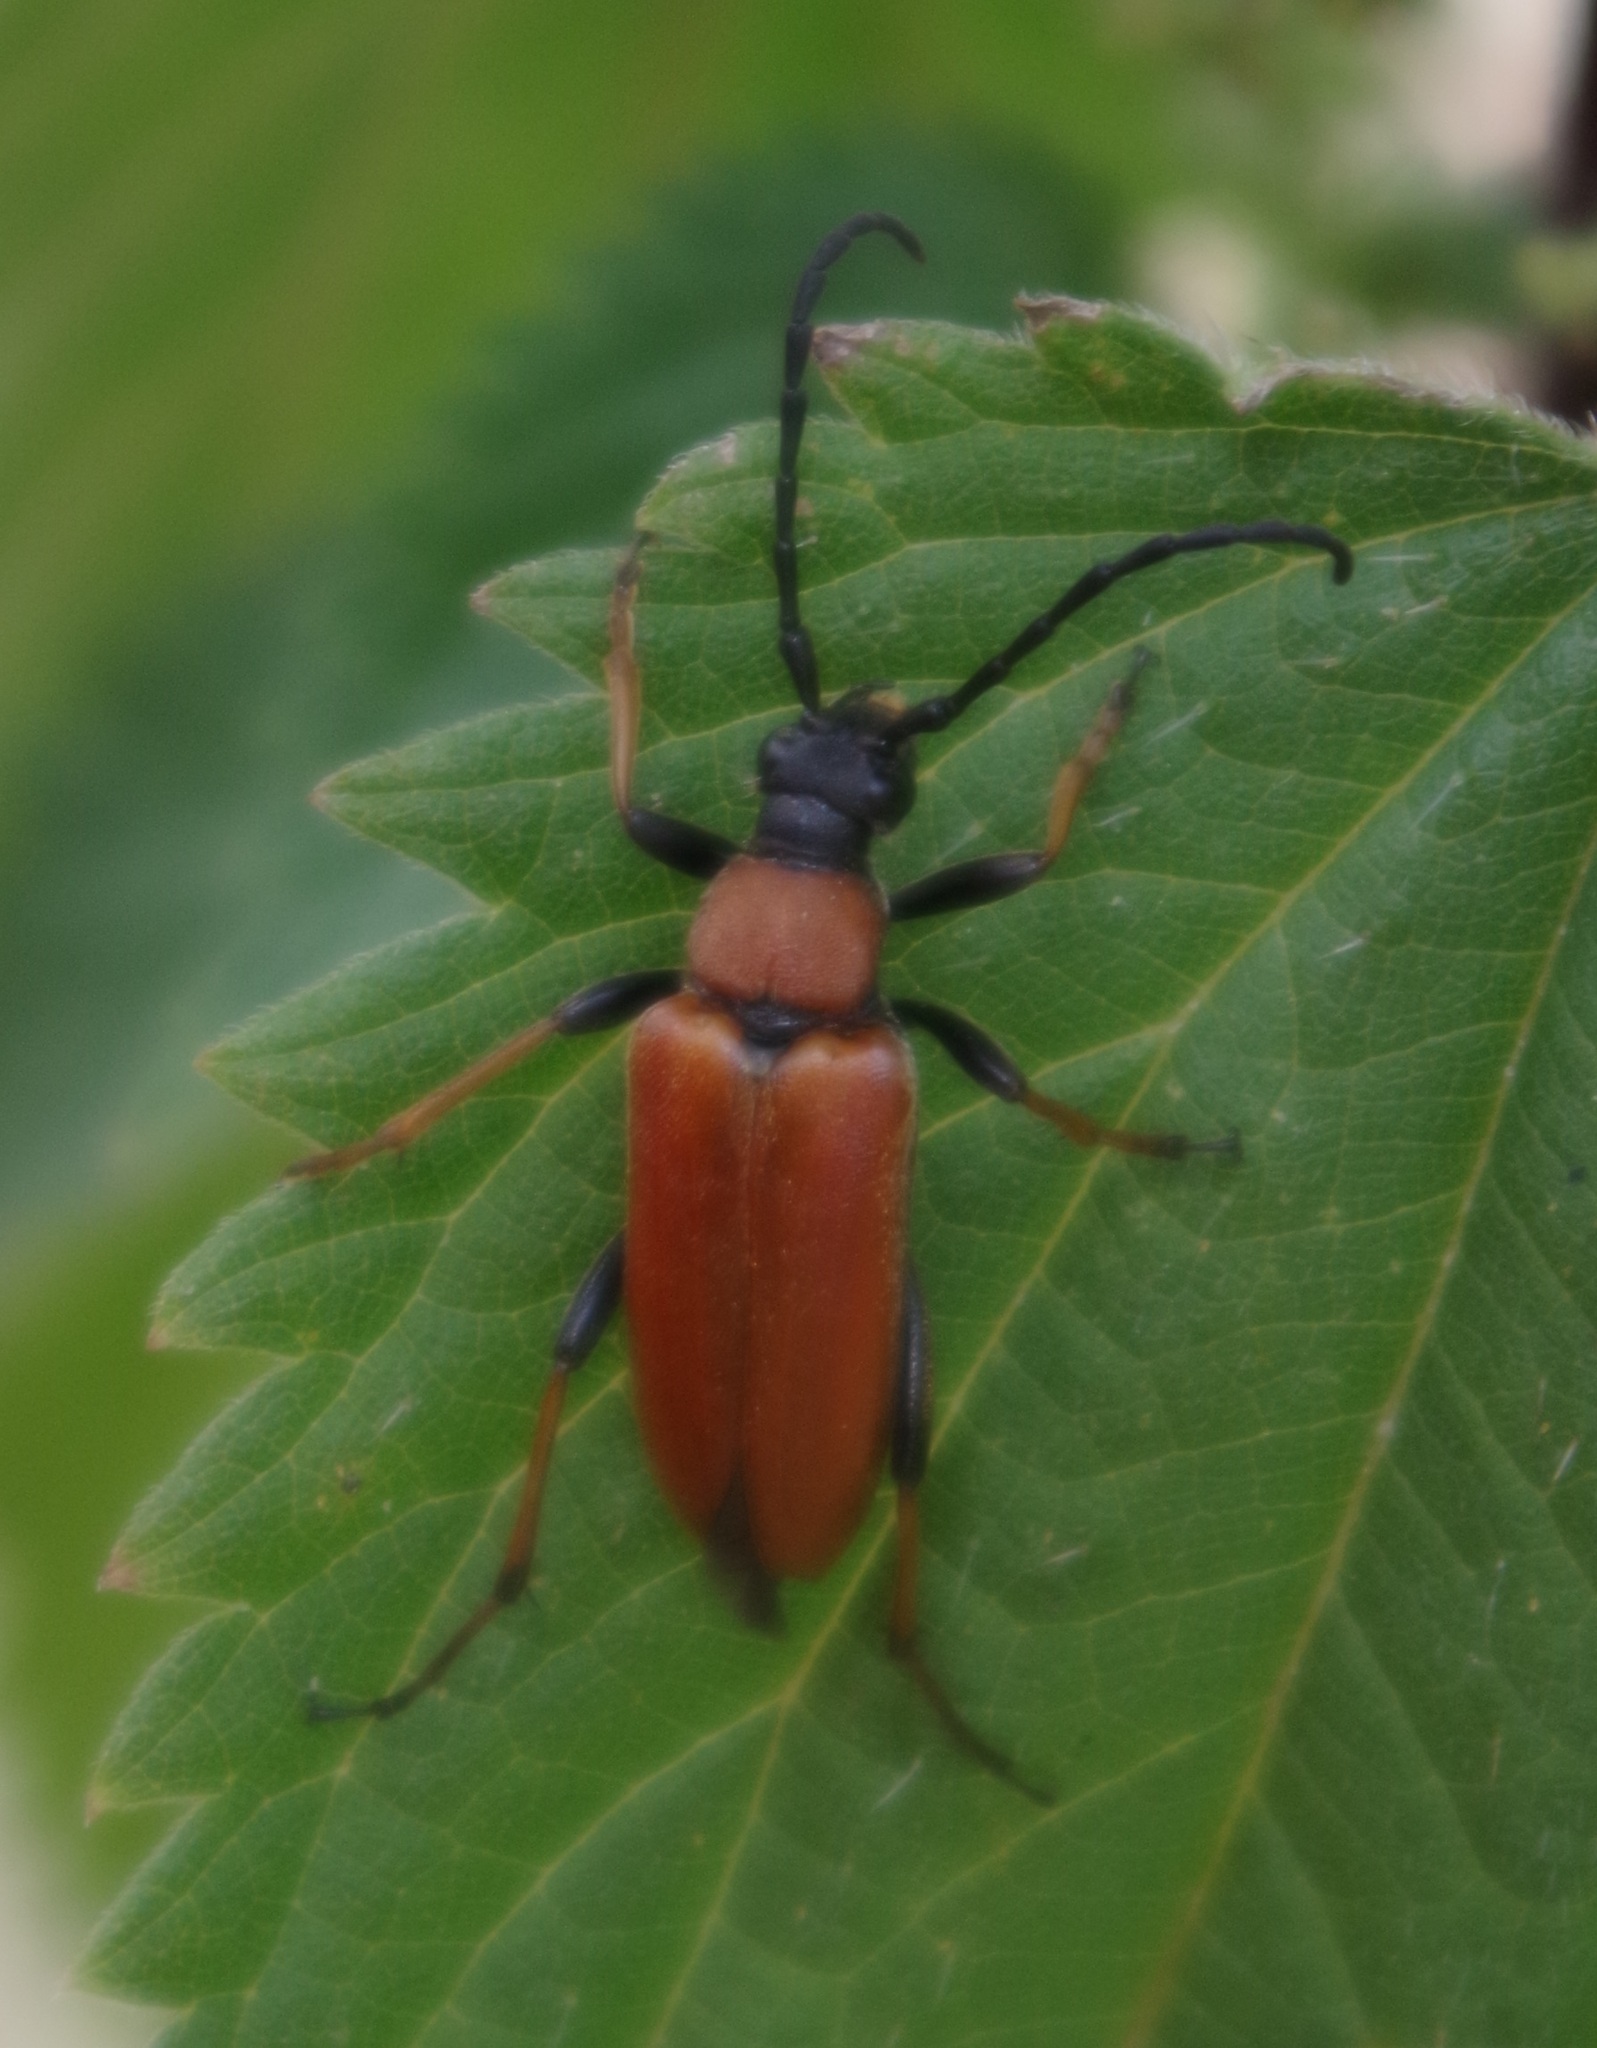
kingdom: Animalia
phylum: Arthropoda
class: Insecta
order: Coleoptera
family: Cerambycidae
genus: Stictoleptura
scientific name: Stictoleptura rubra
